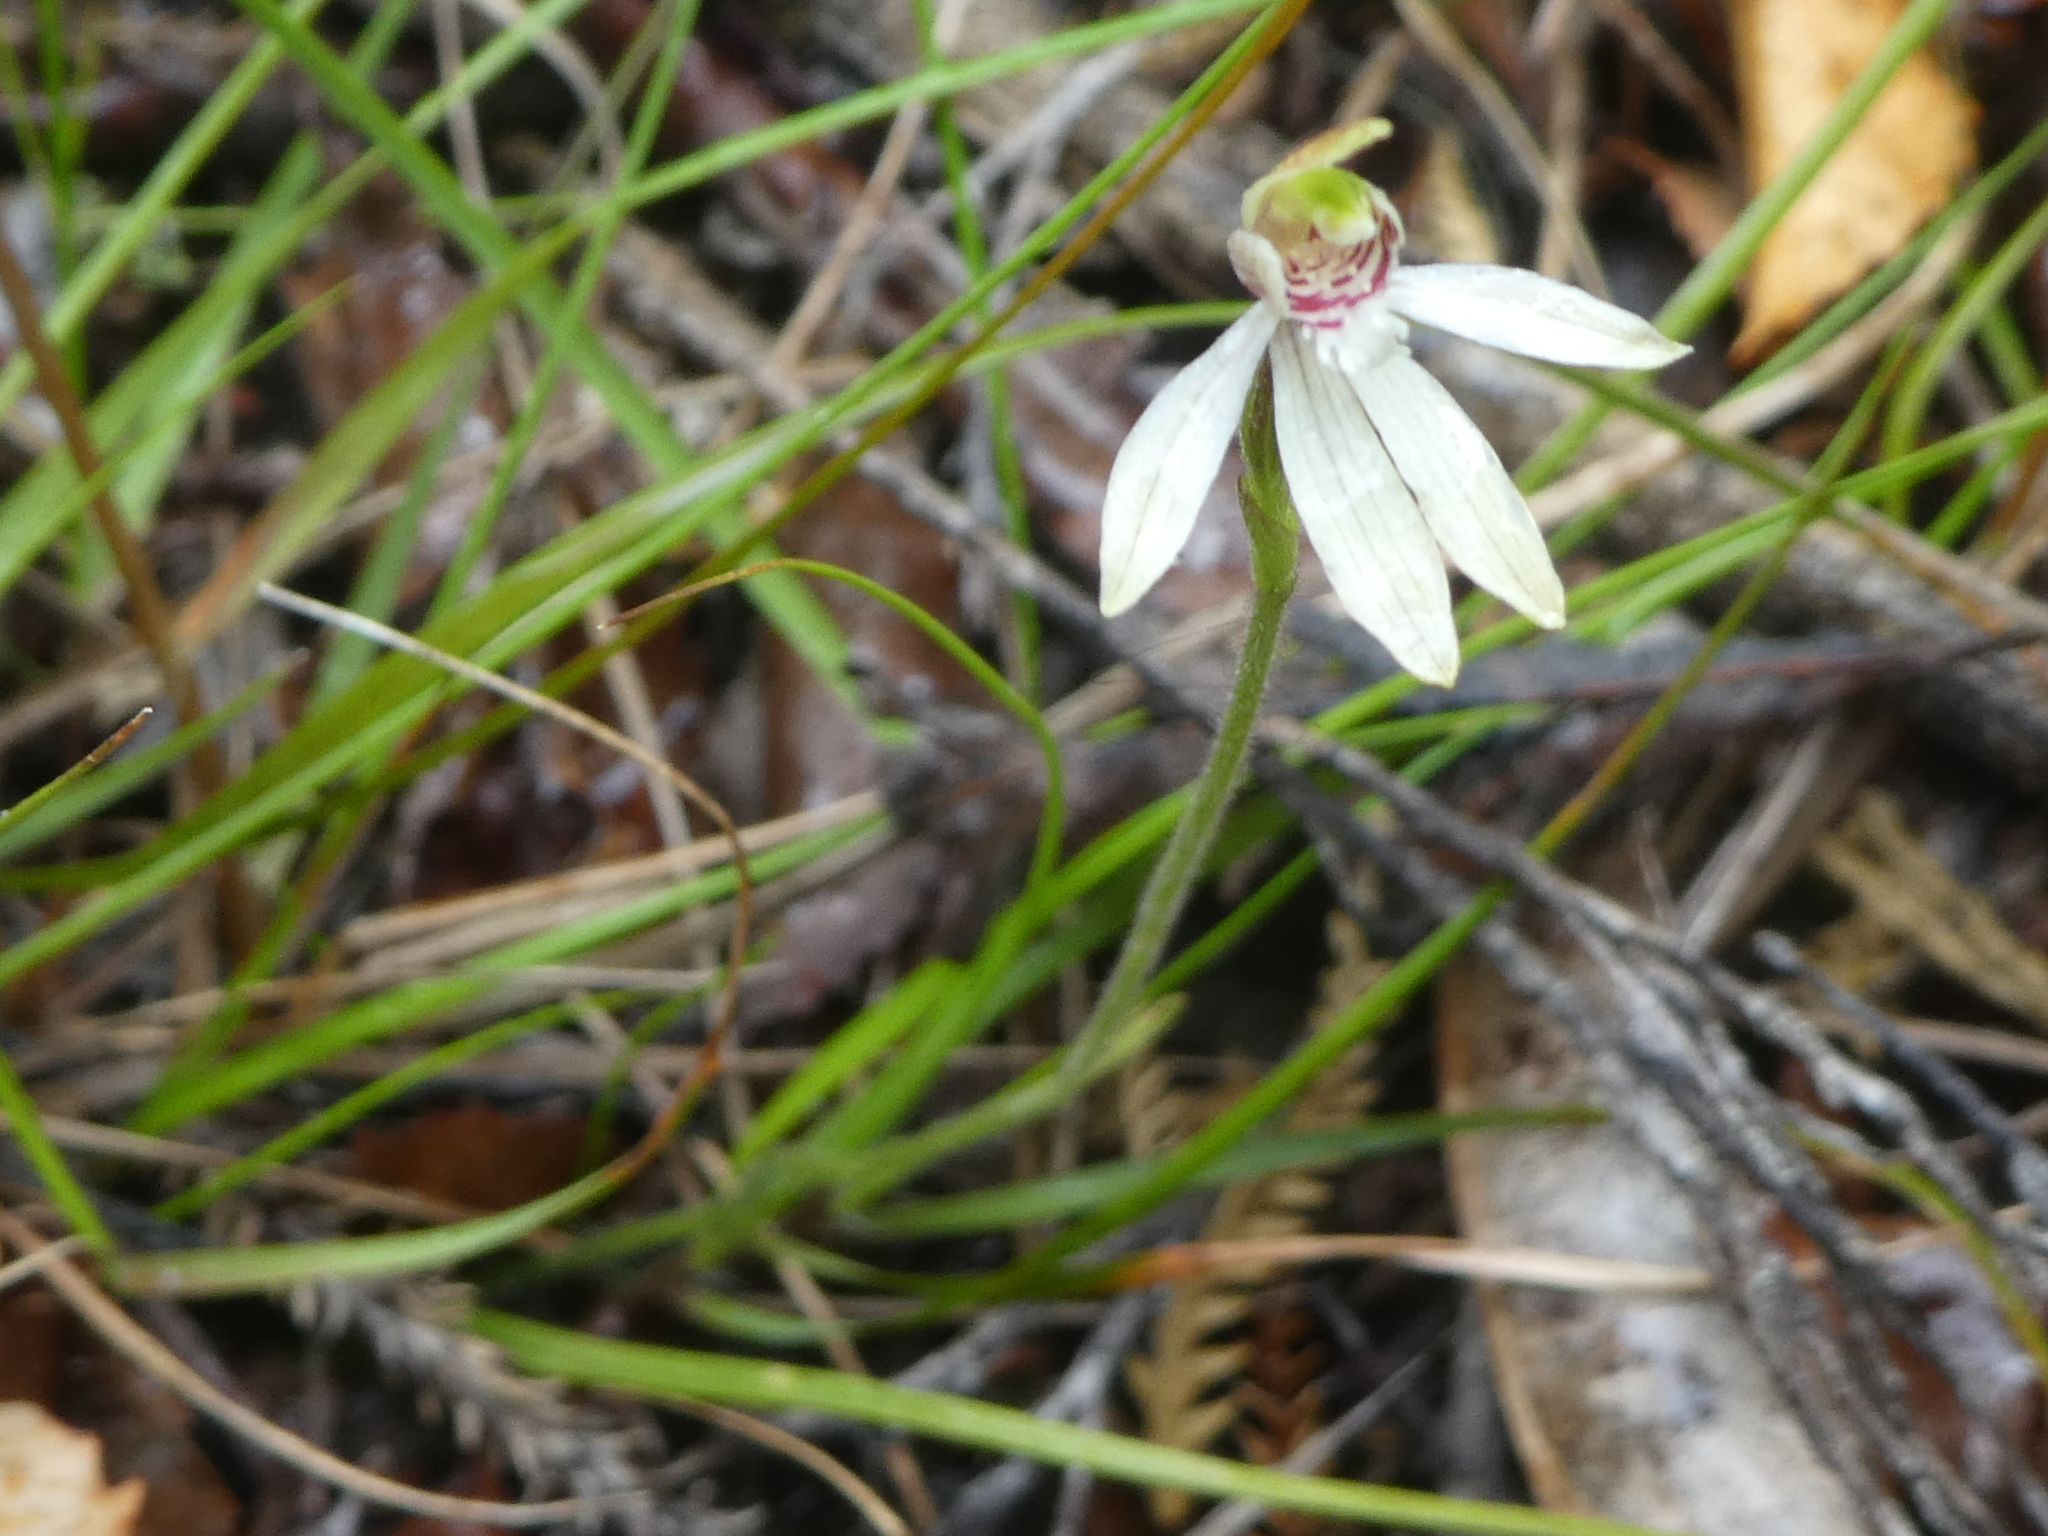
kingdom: Plantae
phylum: Tracheophyta
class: Liliopsida
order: Asparagales
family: Orchidaceae
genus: Caladenia
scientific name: Caladenia chlorostyla
